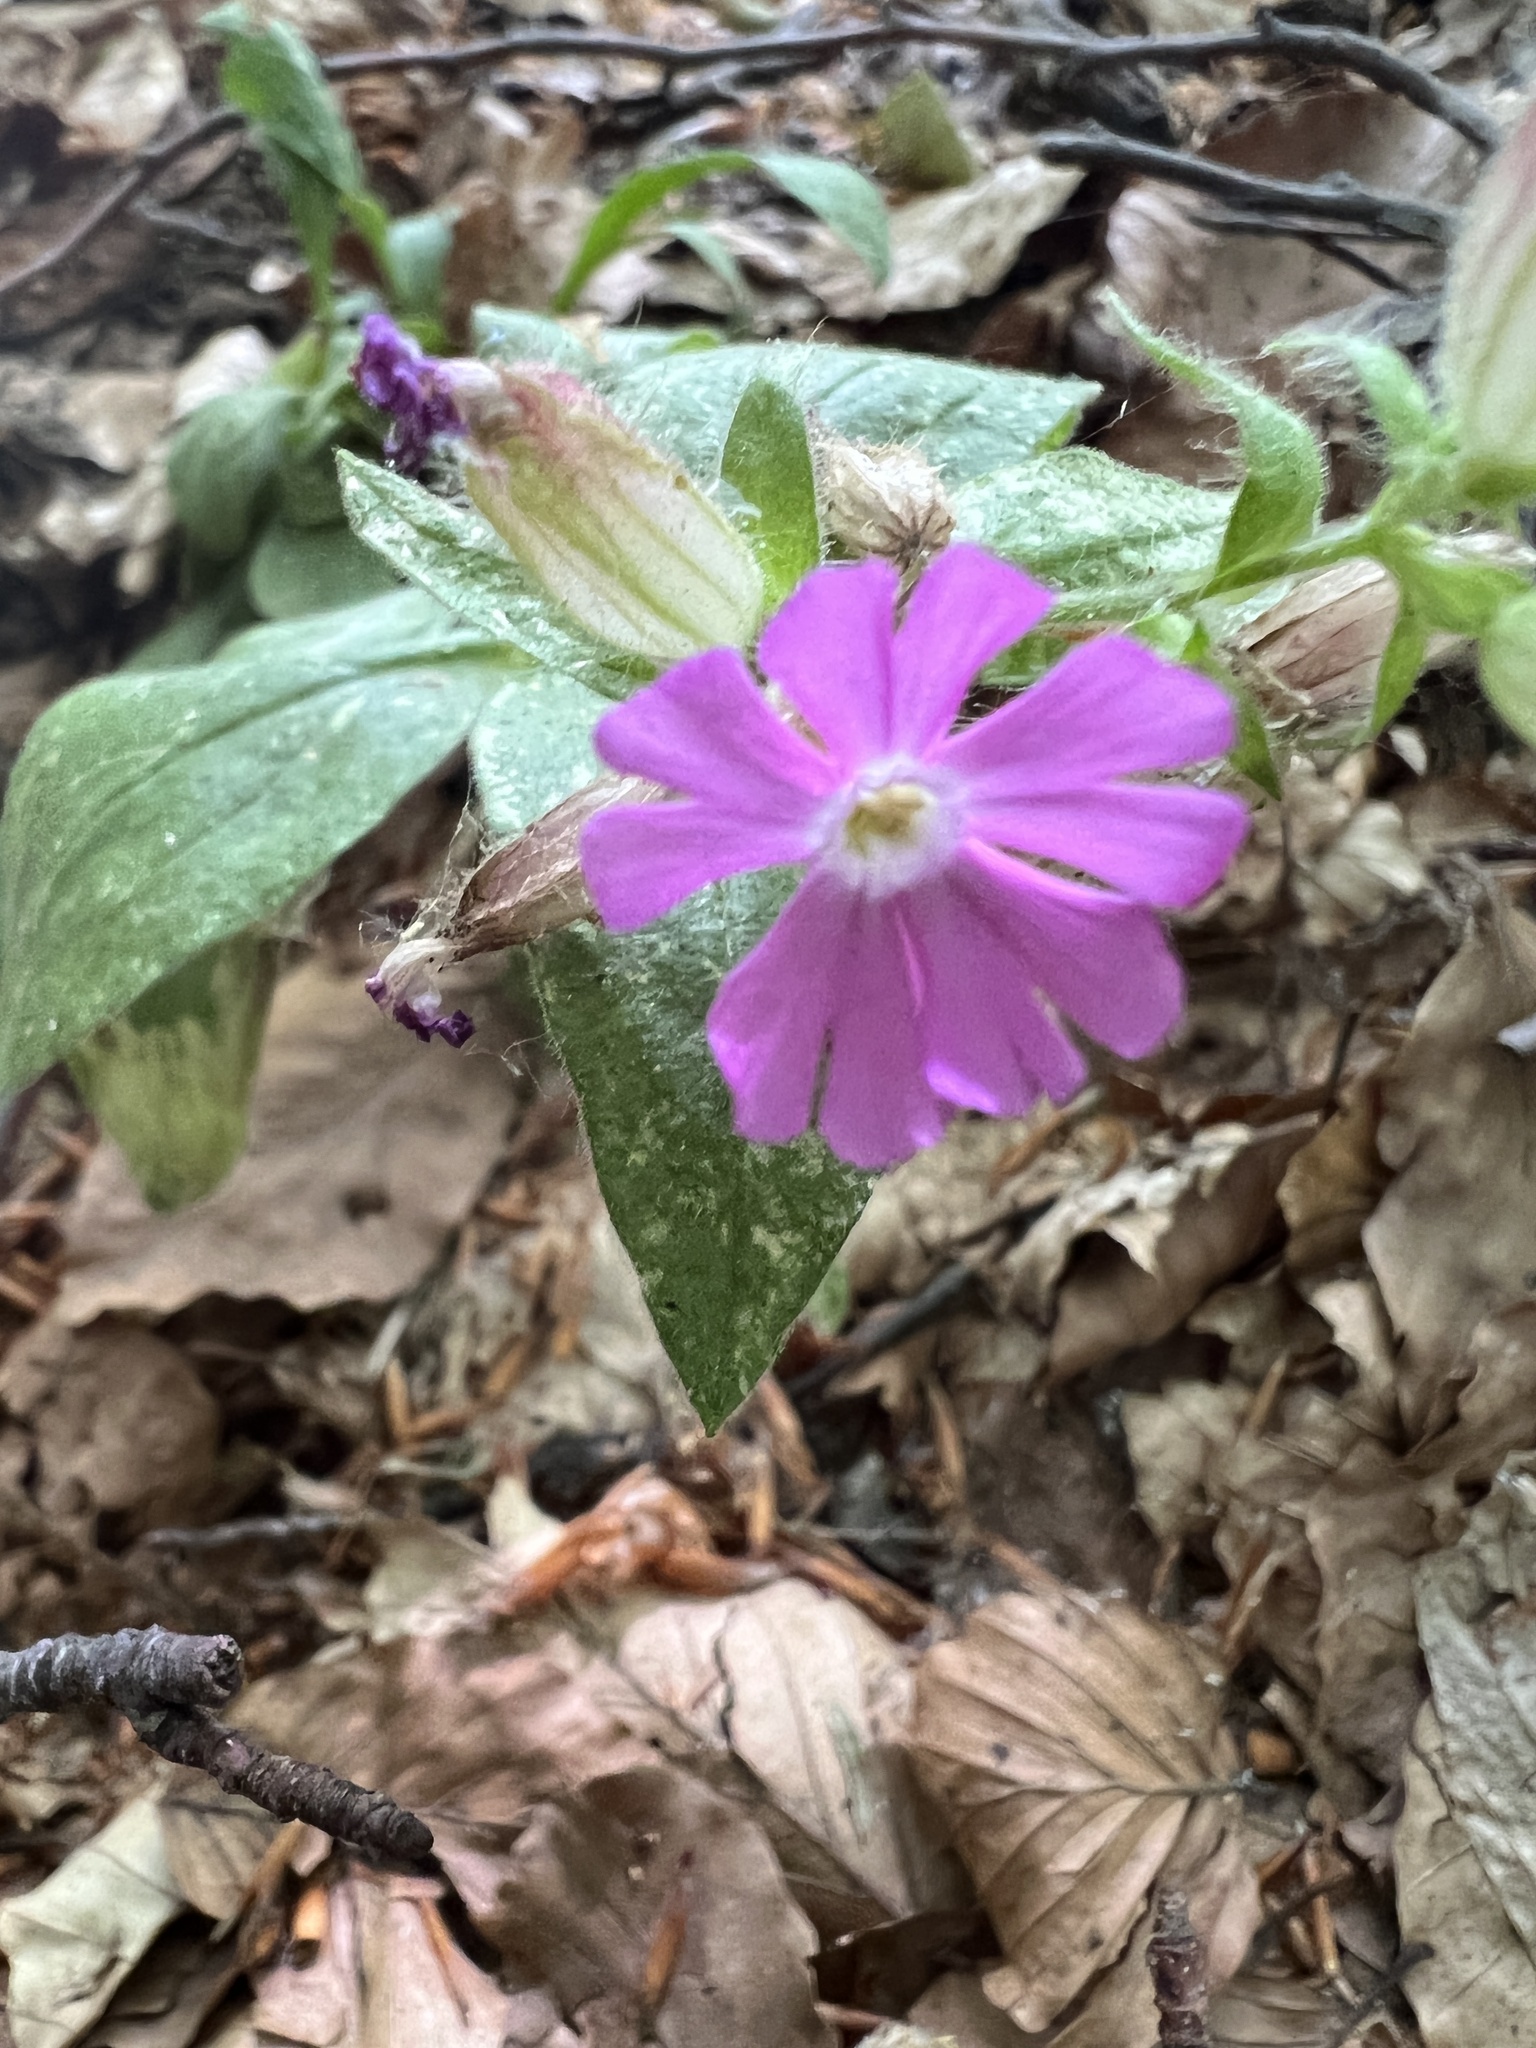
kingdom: Plantae
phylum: Tracheophyta
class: Magnoliopsida
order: Caryophyllales
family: Caryophyllaceae
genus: Silene
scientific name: Silene dioica
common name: Red campion
